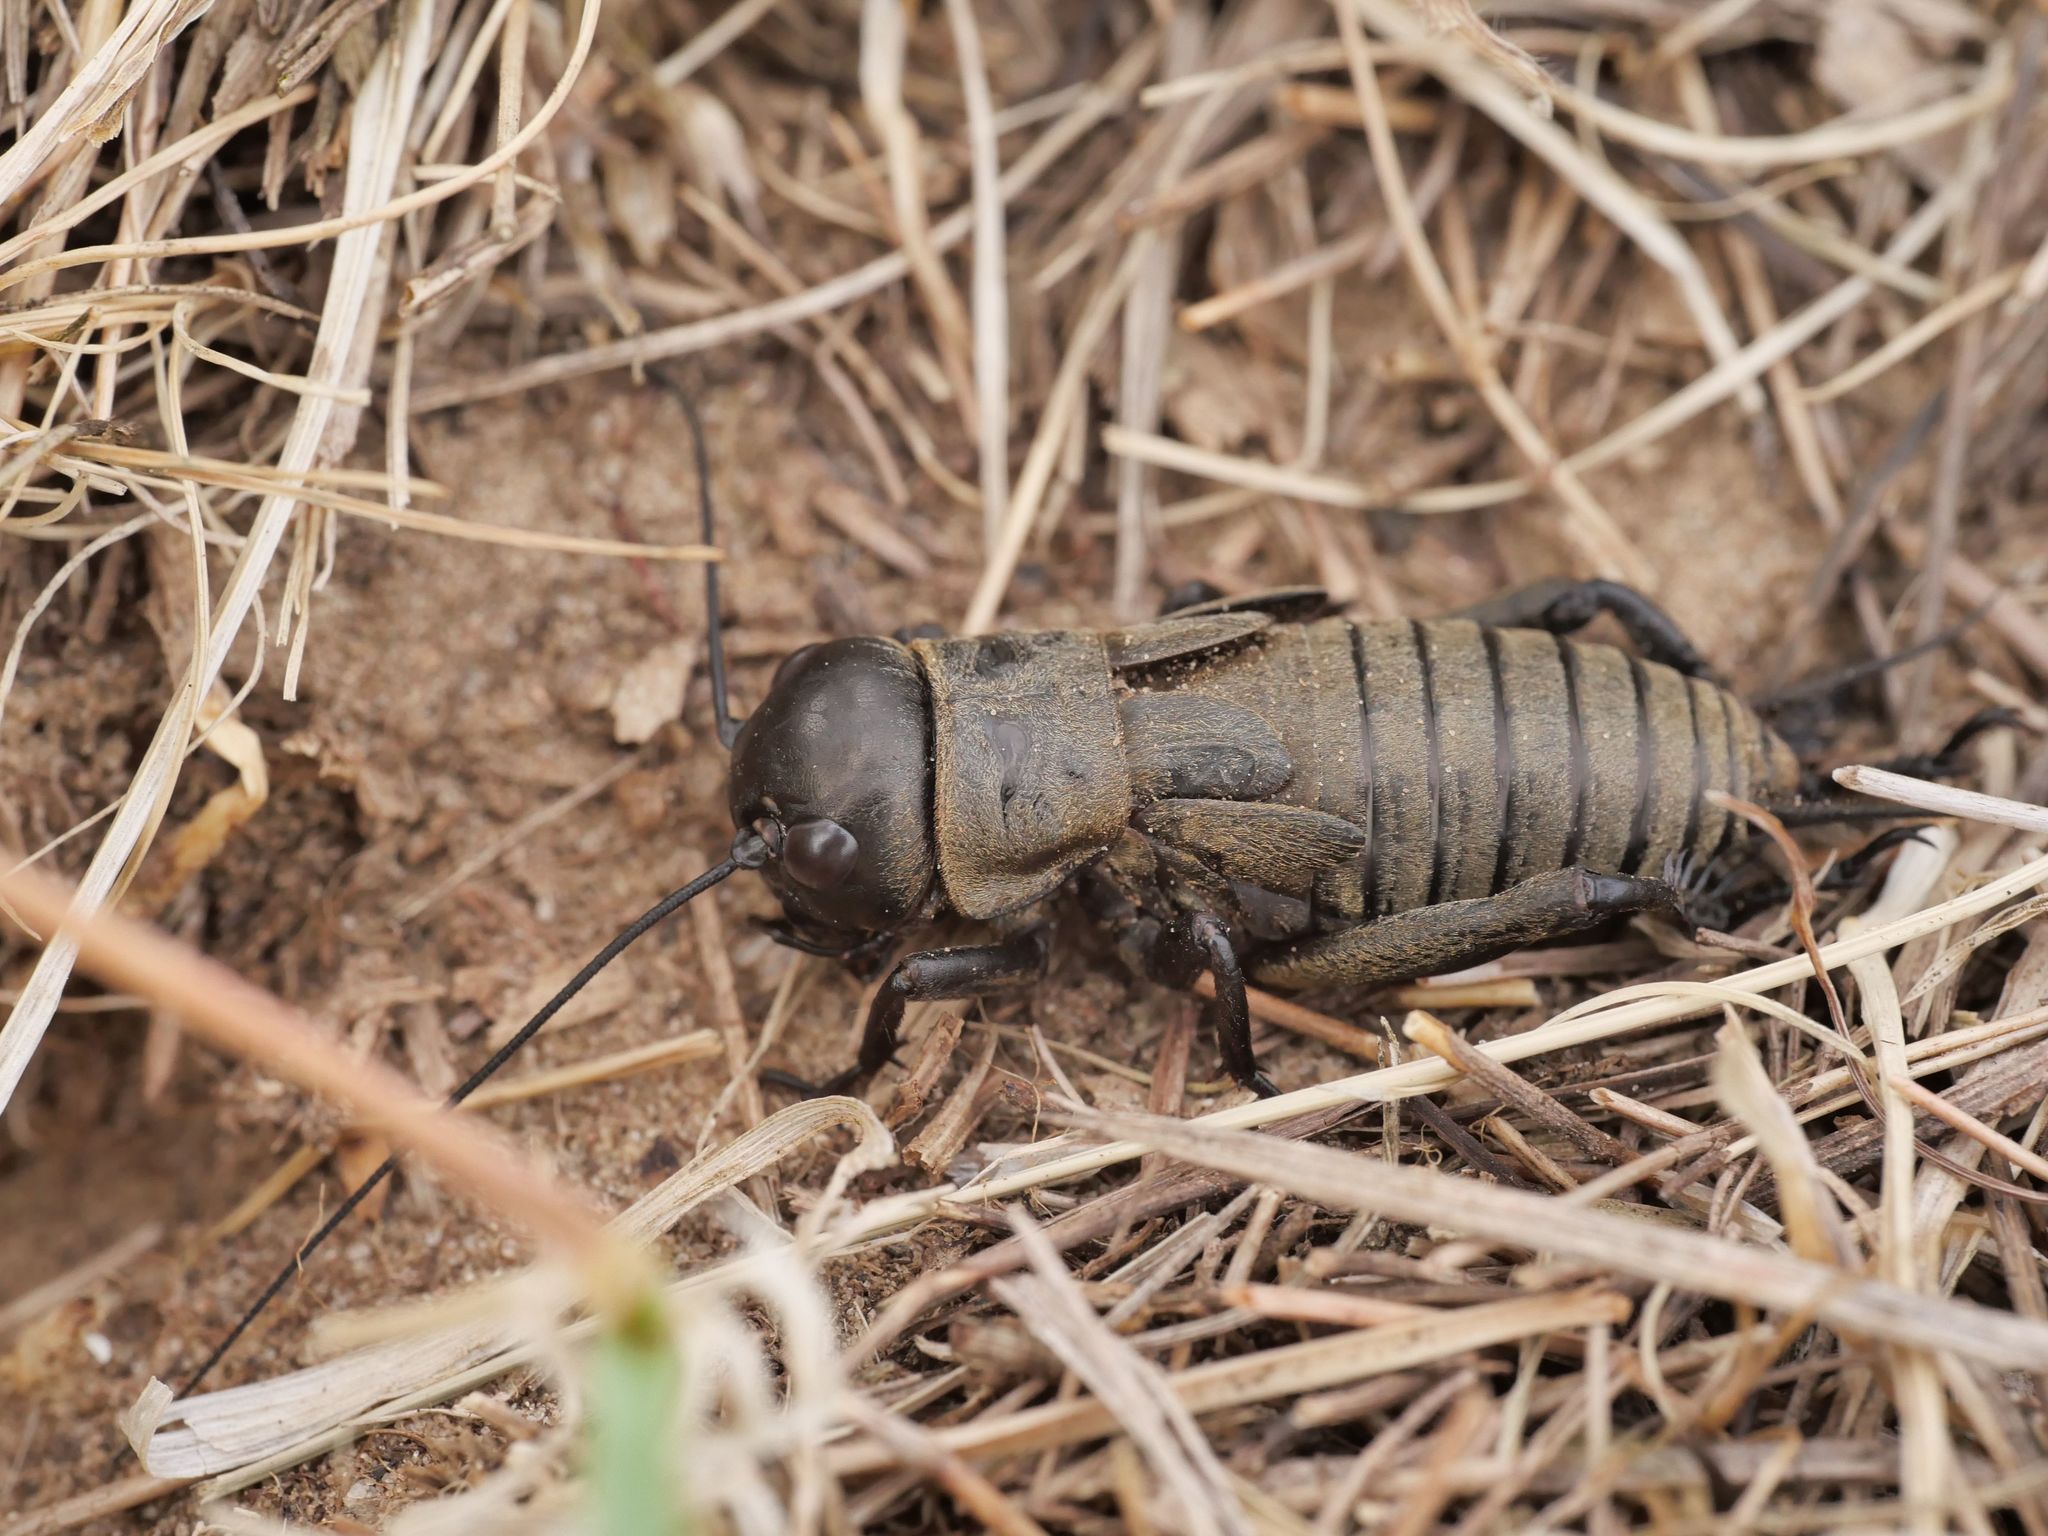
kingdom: Animalia
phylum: Arthropoda
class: Insecta
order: Orthoptera
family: Gryllidae
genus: Gryllus
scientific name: Gryllus campestris
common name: Field cricket
